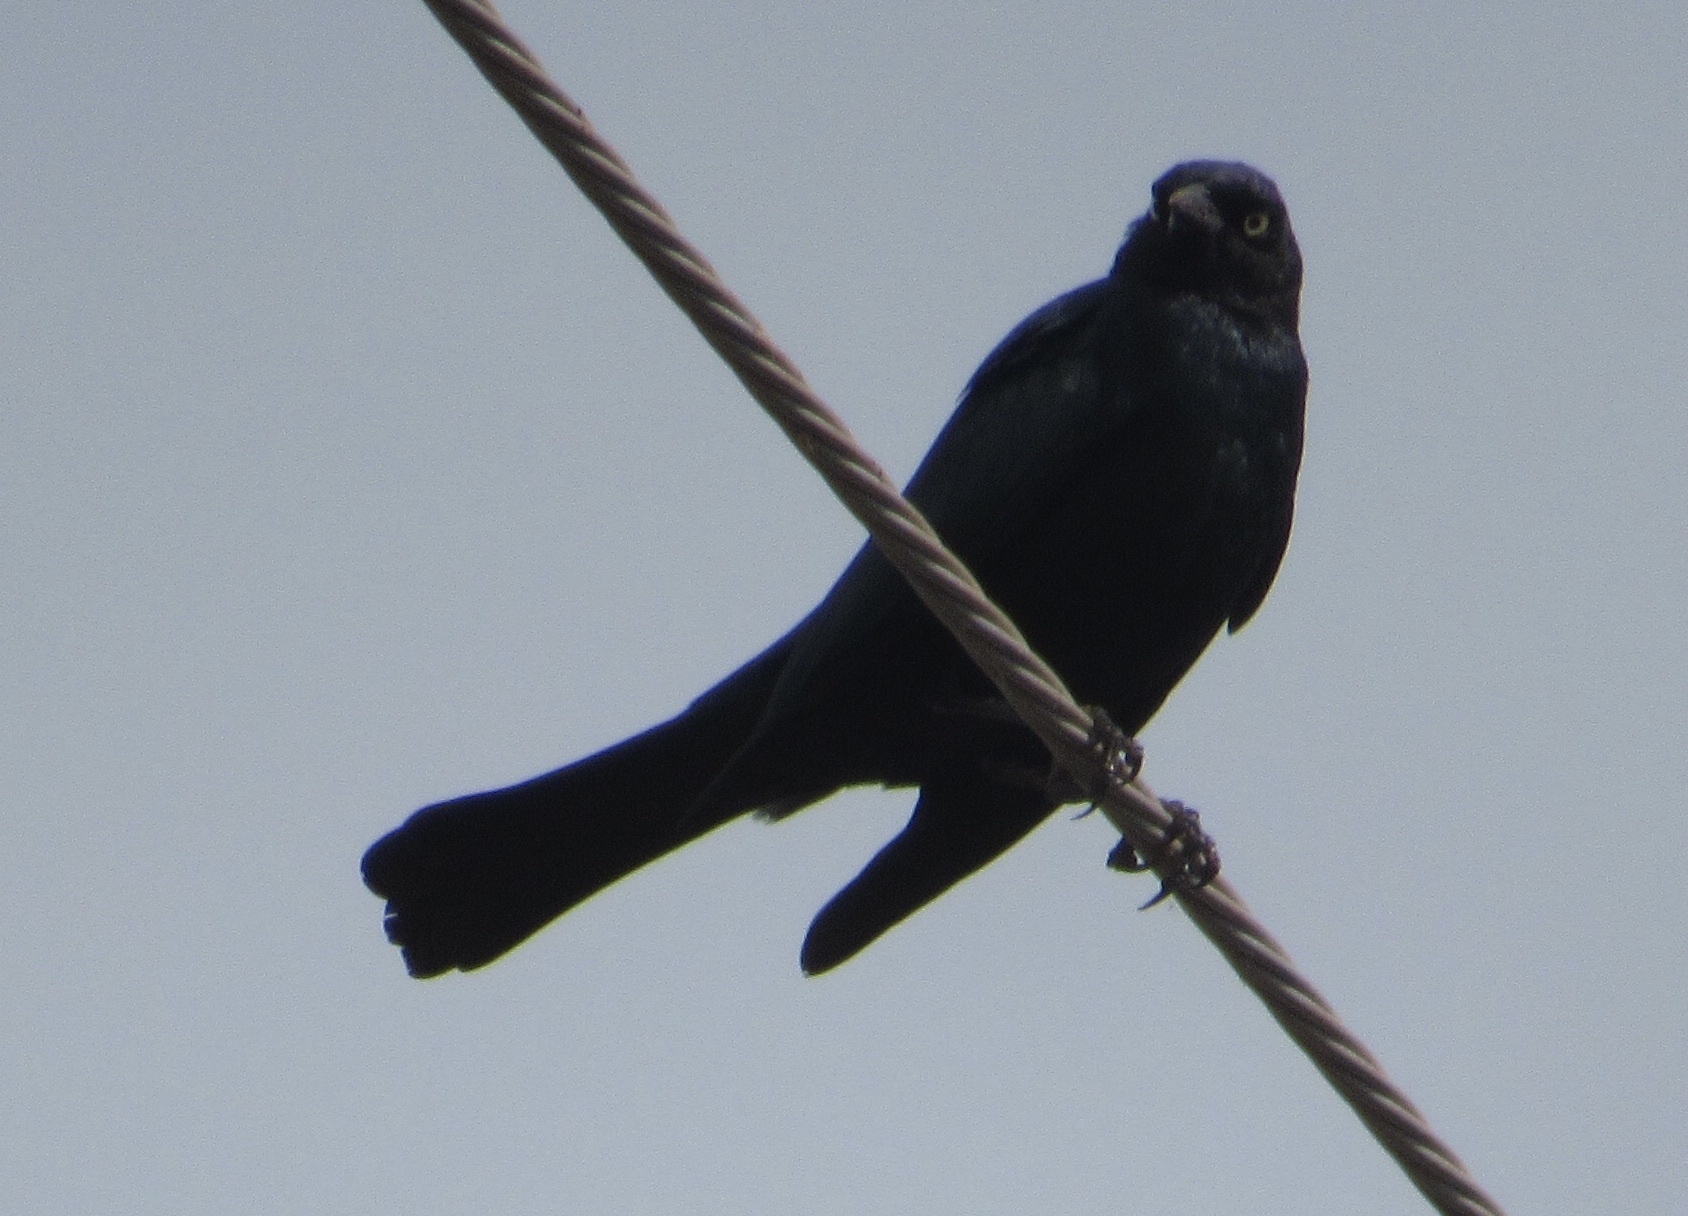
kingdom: Animalia
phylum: Chordata
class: Aves
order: Passeriformes
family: Icteridae
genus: Agelaius
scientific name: Agelaius phoeniceus
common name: Red-winged blackbird
